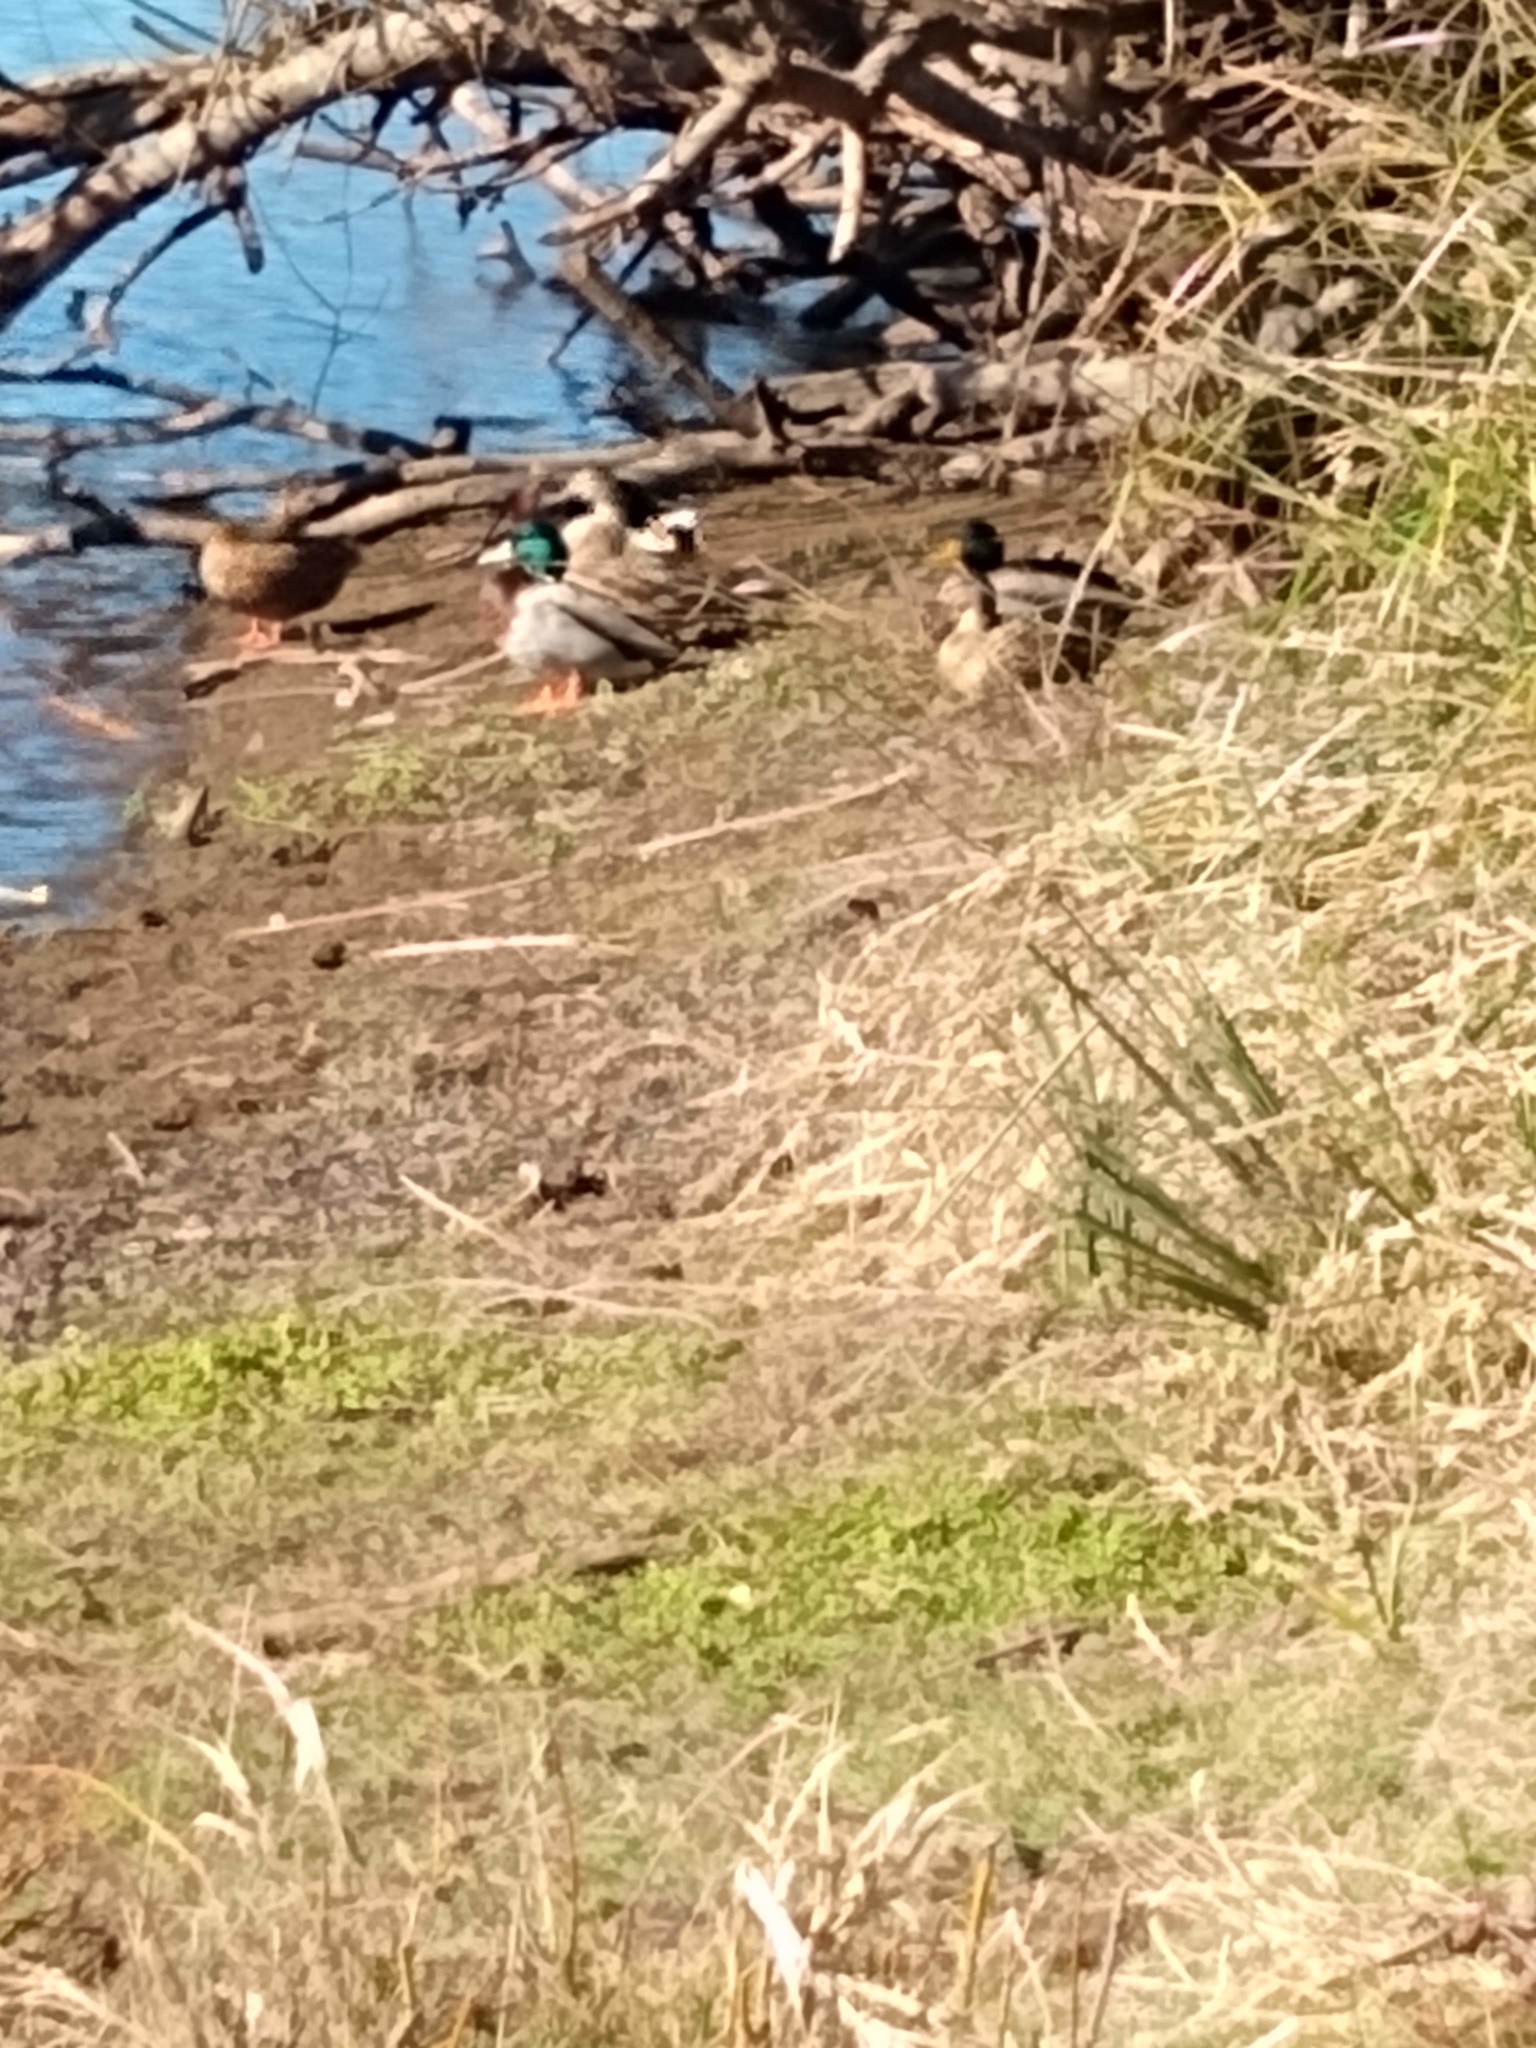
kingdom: Animalia
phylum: Chordata
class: Aves
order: Anseriformes
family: Anatidae
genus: Anas
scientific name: Anas platyrhynchos
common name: Mallard
